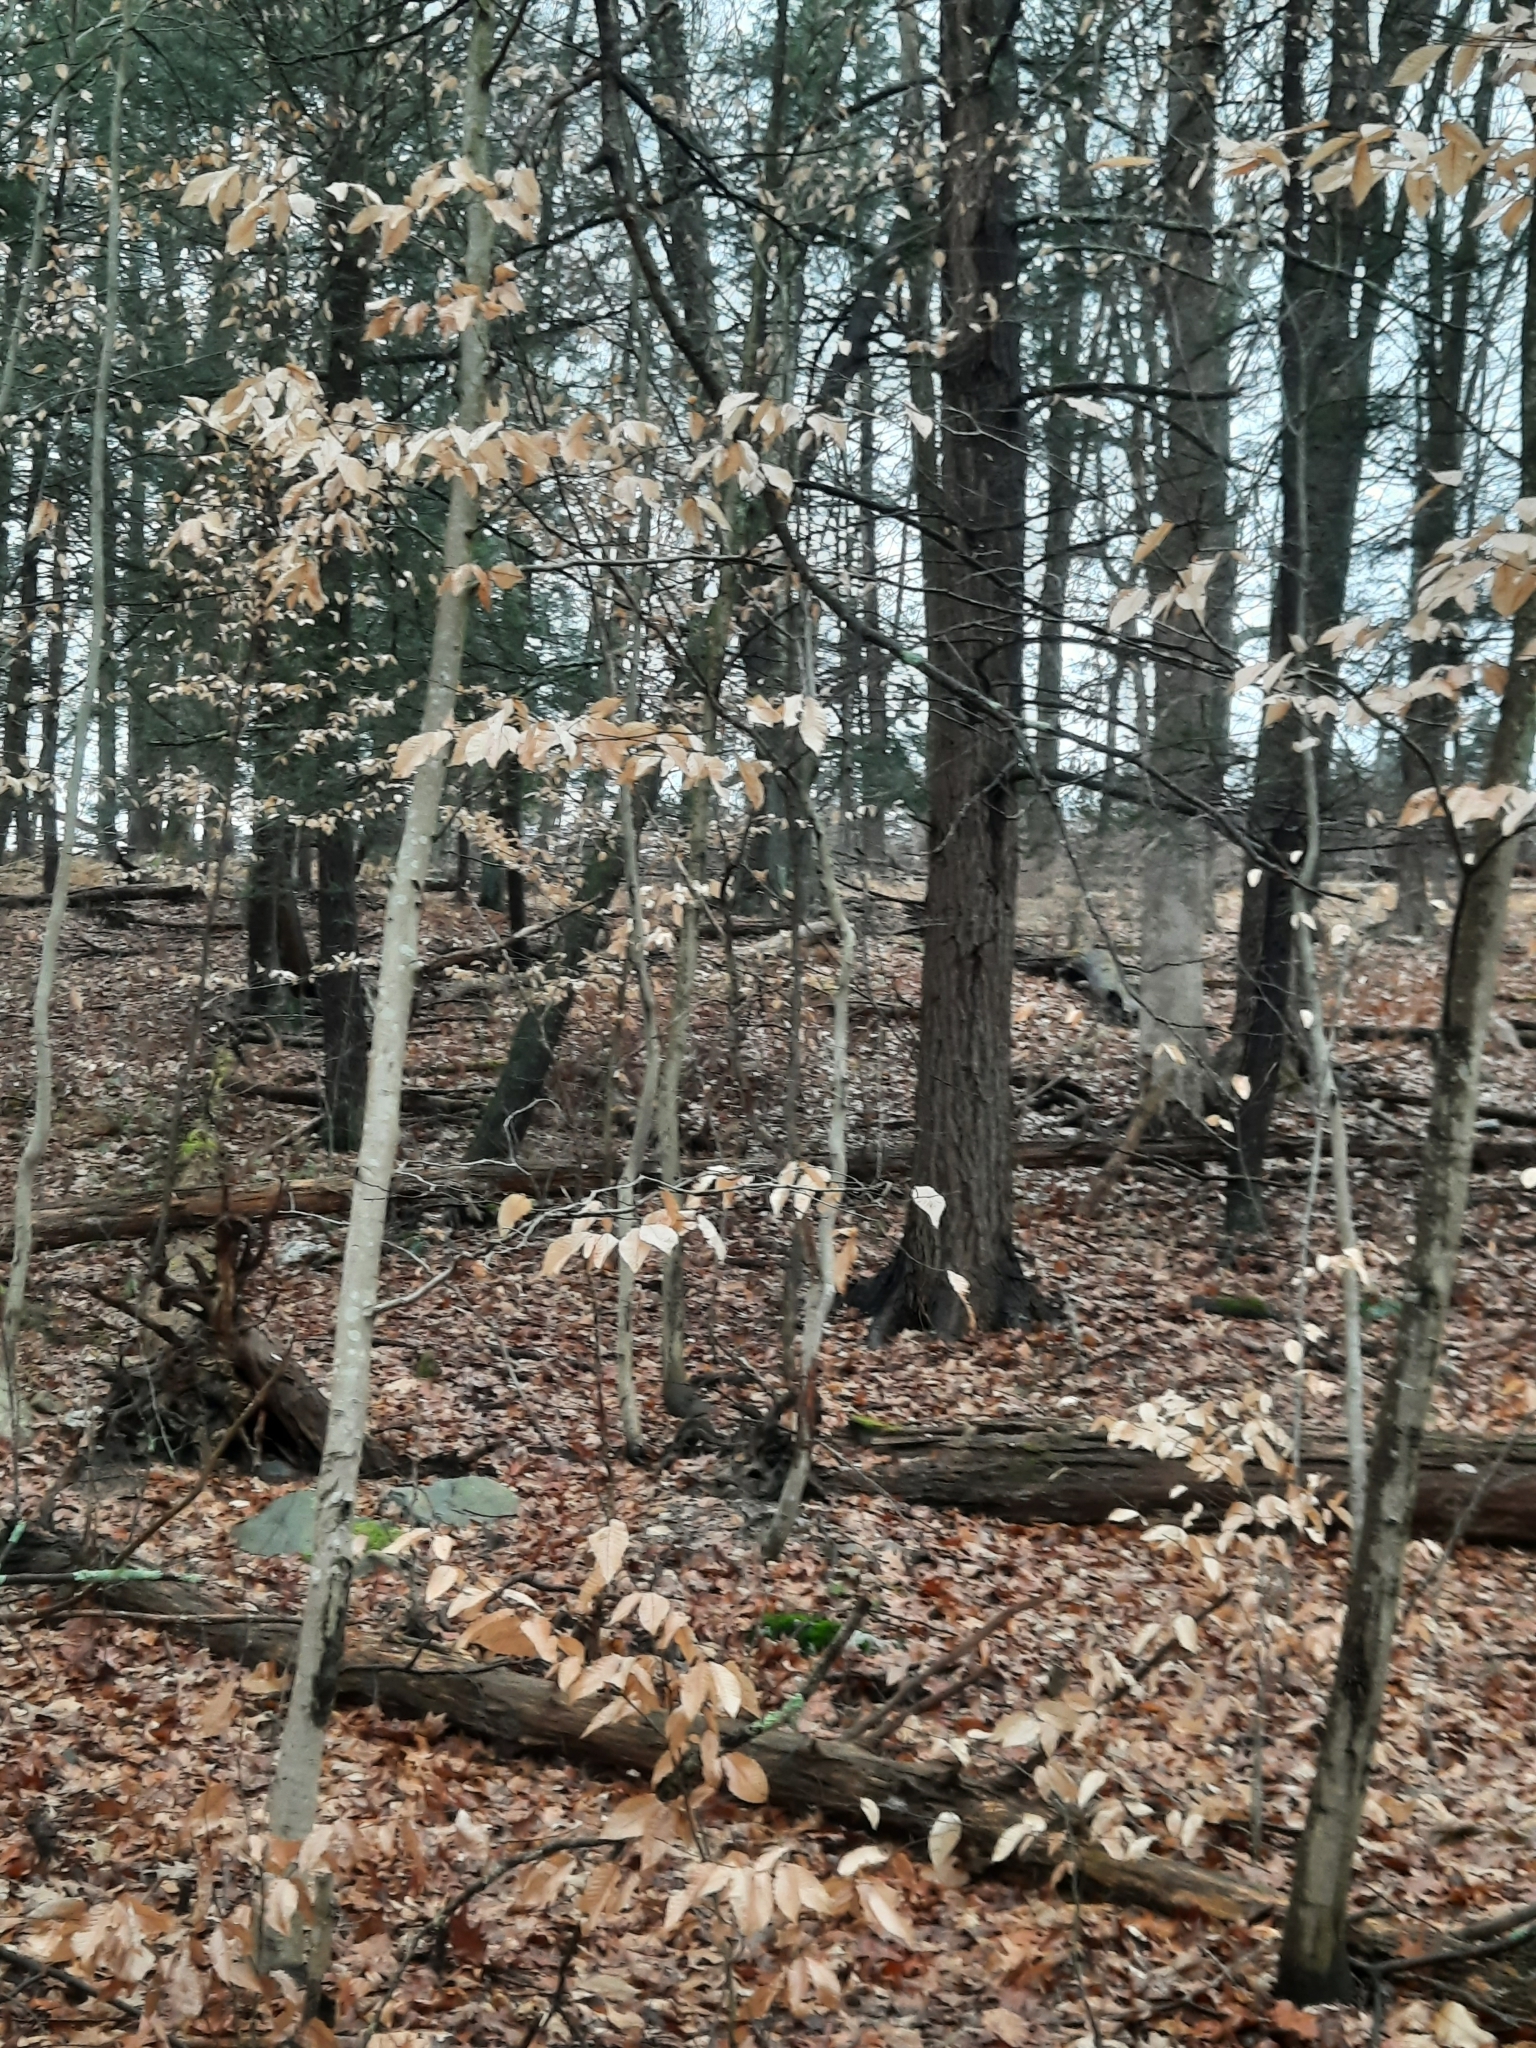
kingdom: Plantae
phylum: Tracheophyta
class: Magnoliopsida
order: Fagales
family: Fagaceae
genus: Fagus
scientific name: Fagus grandifolia
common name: American beech
